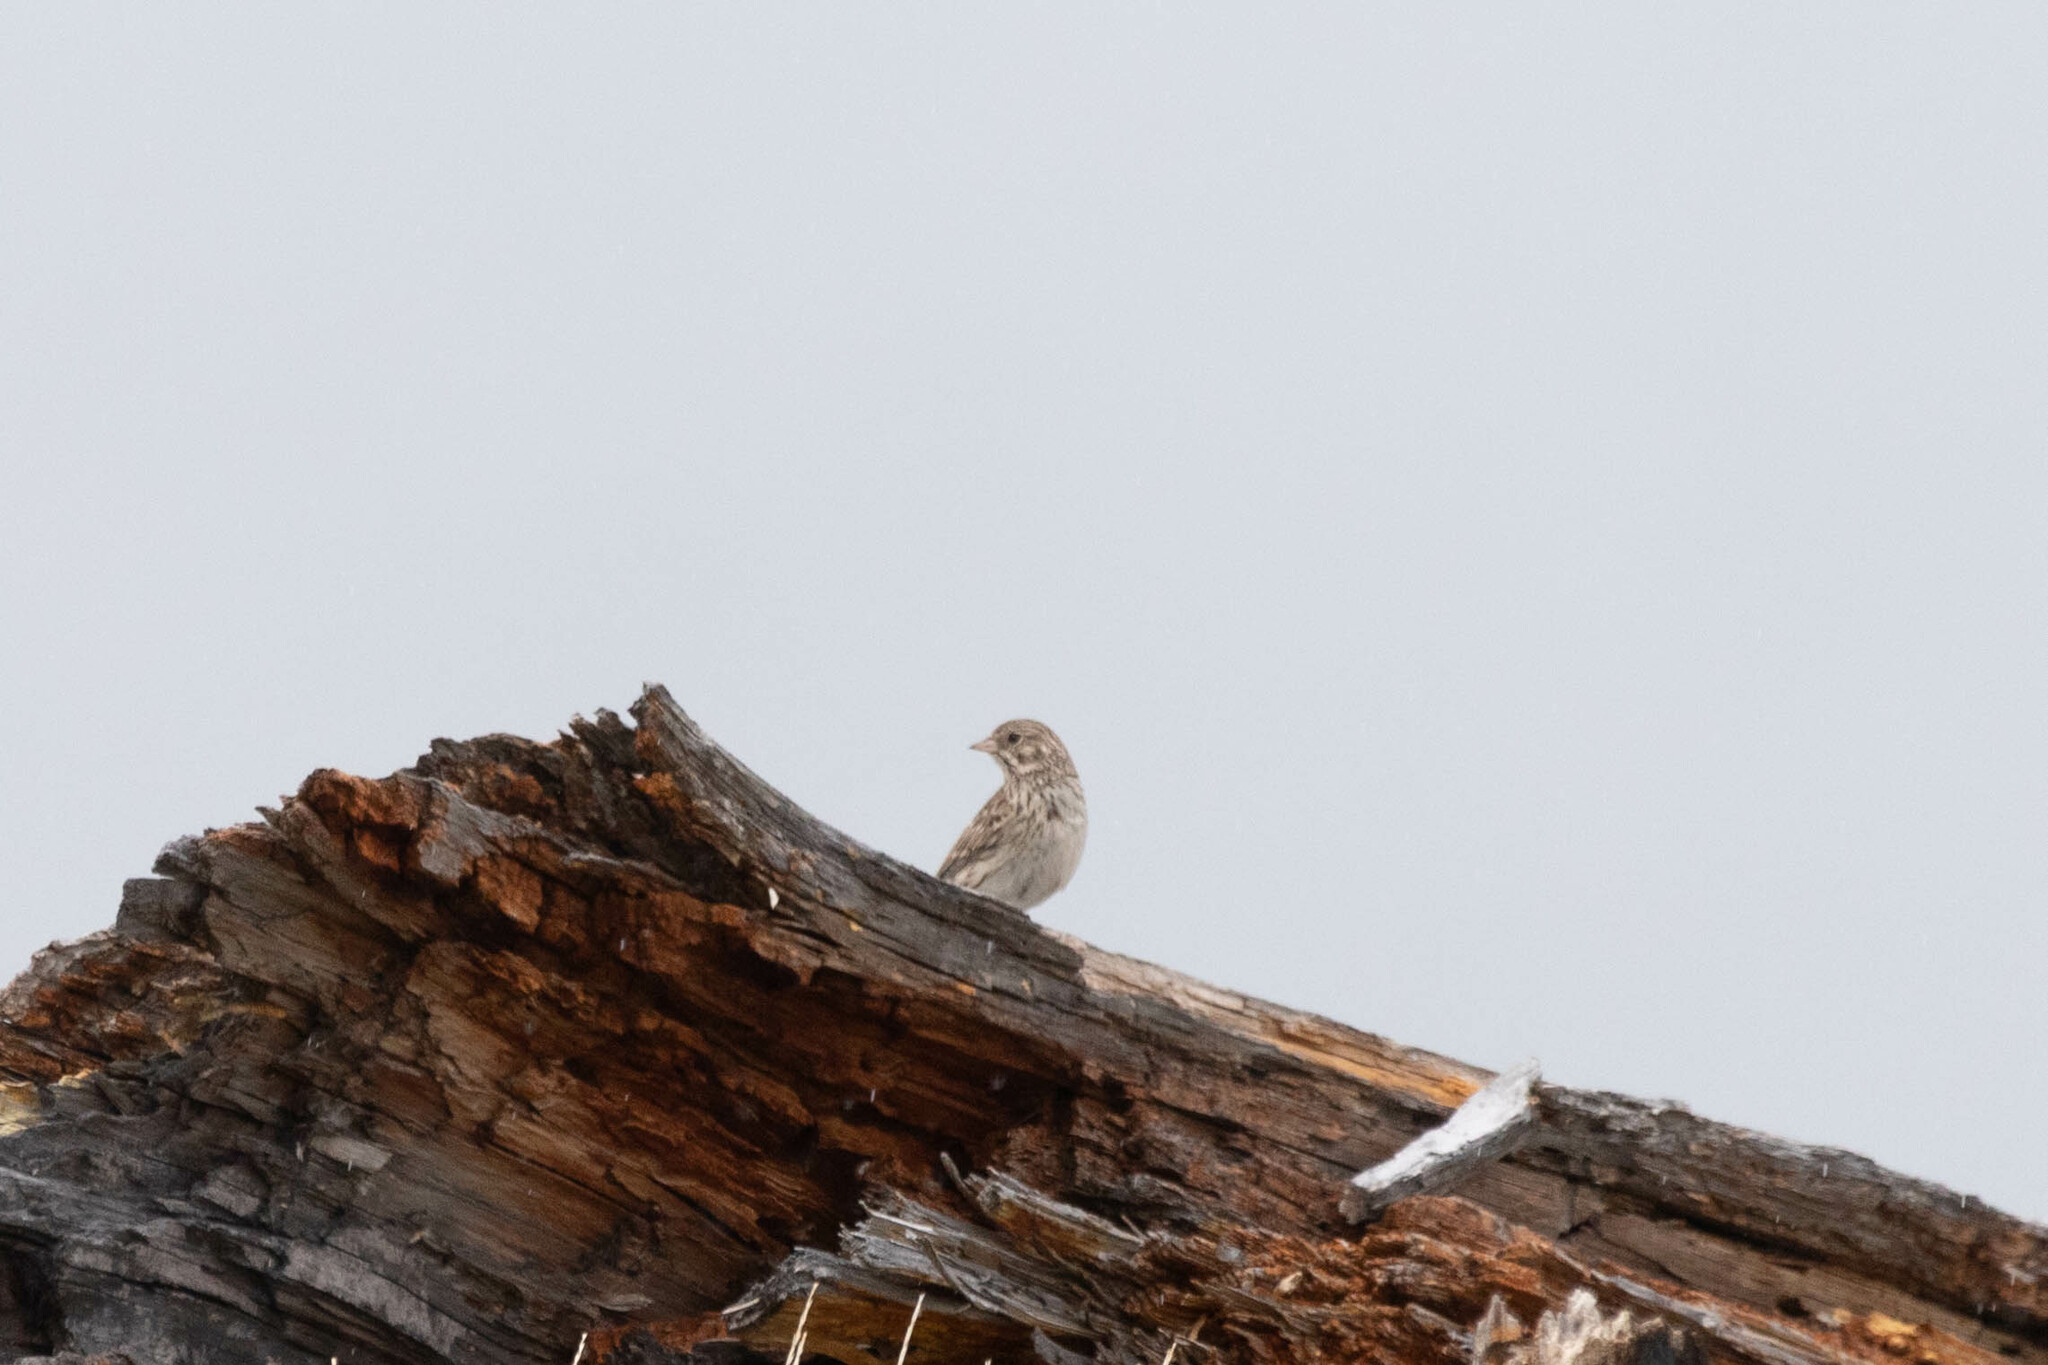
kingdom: Animalia
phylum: Chordata
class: Aves
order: Passeriformes
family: Passerellidae
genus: Pooecetes
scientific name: Pooecetes gramineus
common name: Vesper sparrow
